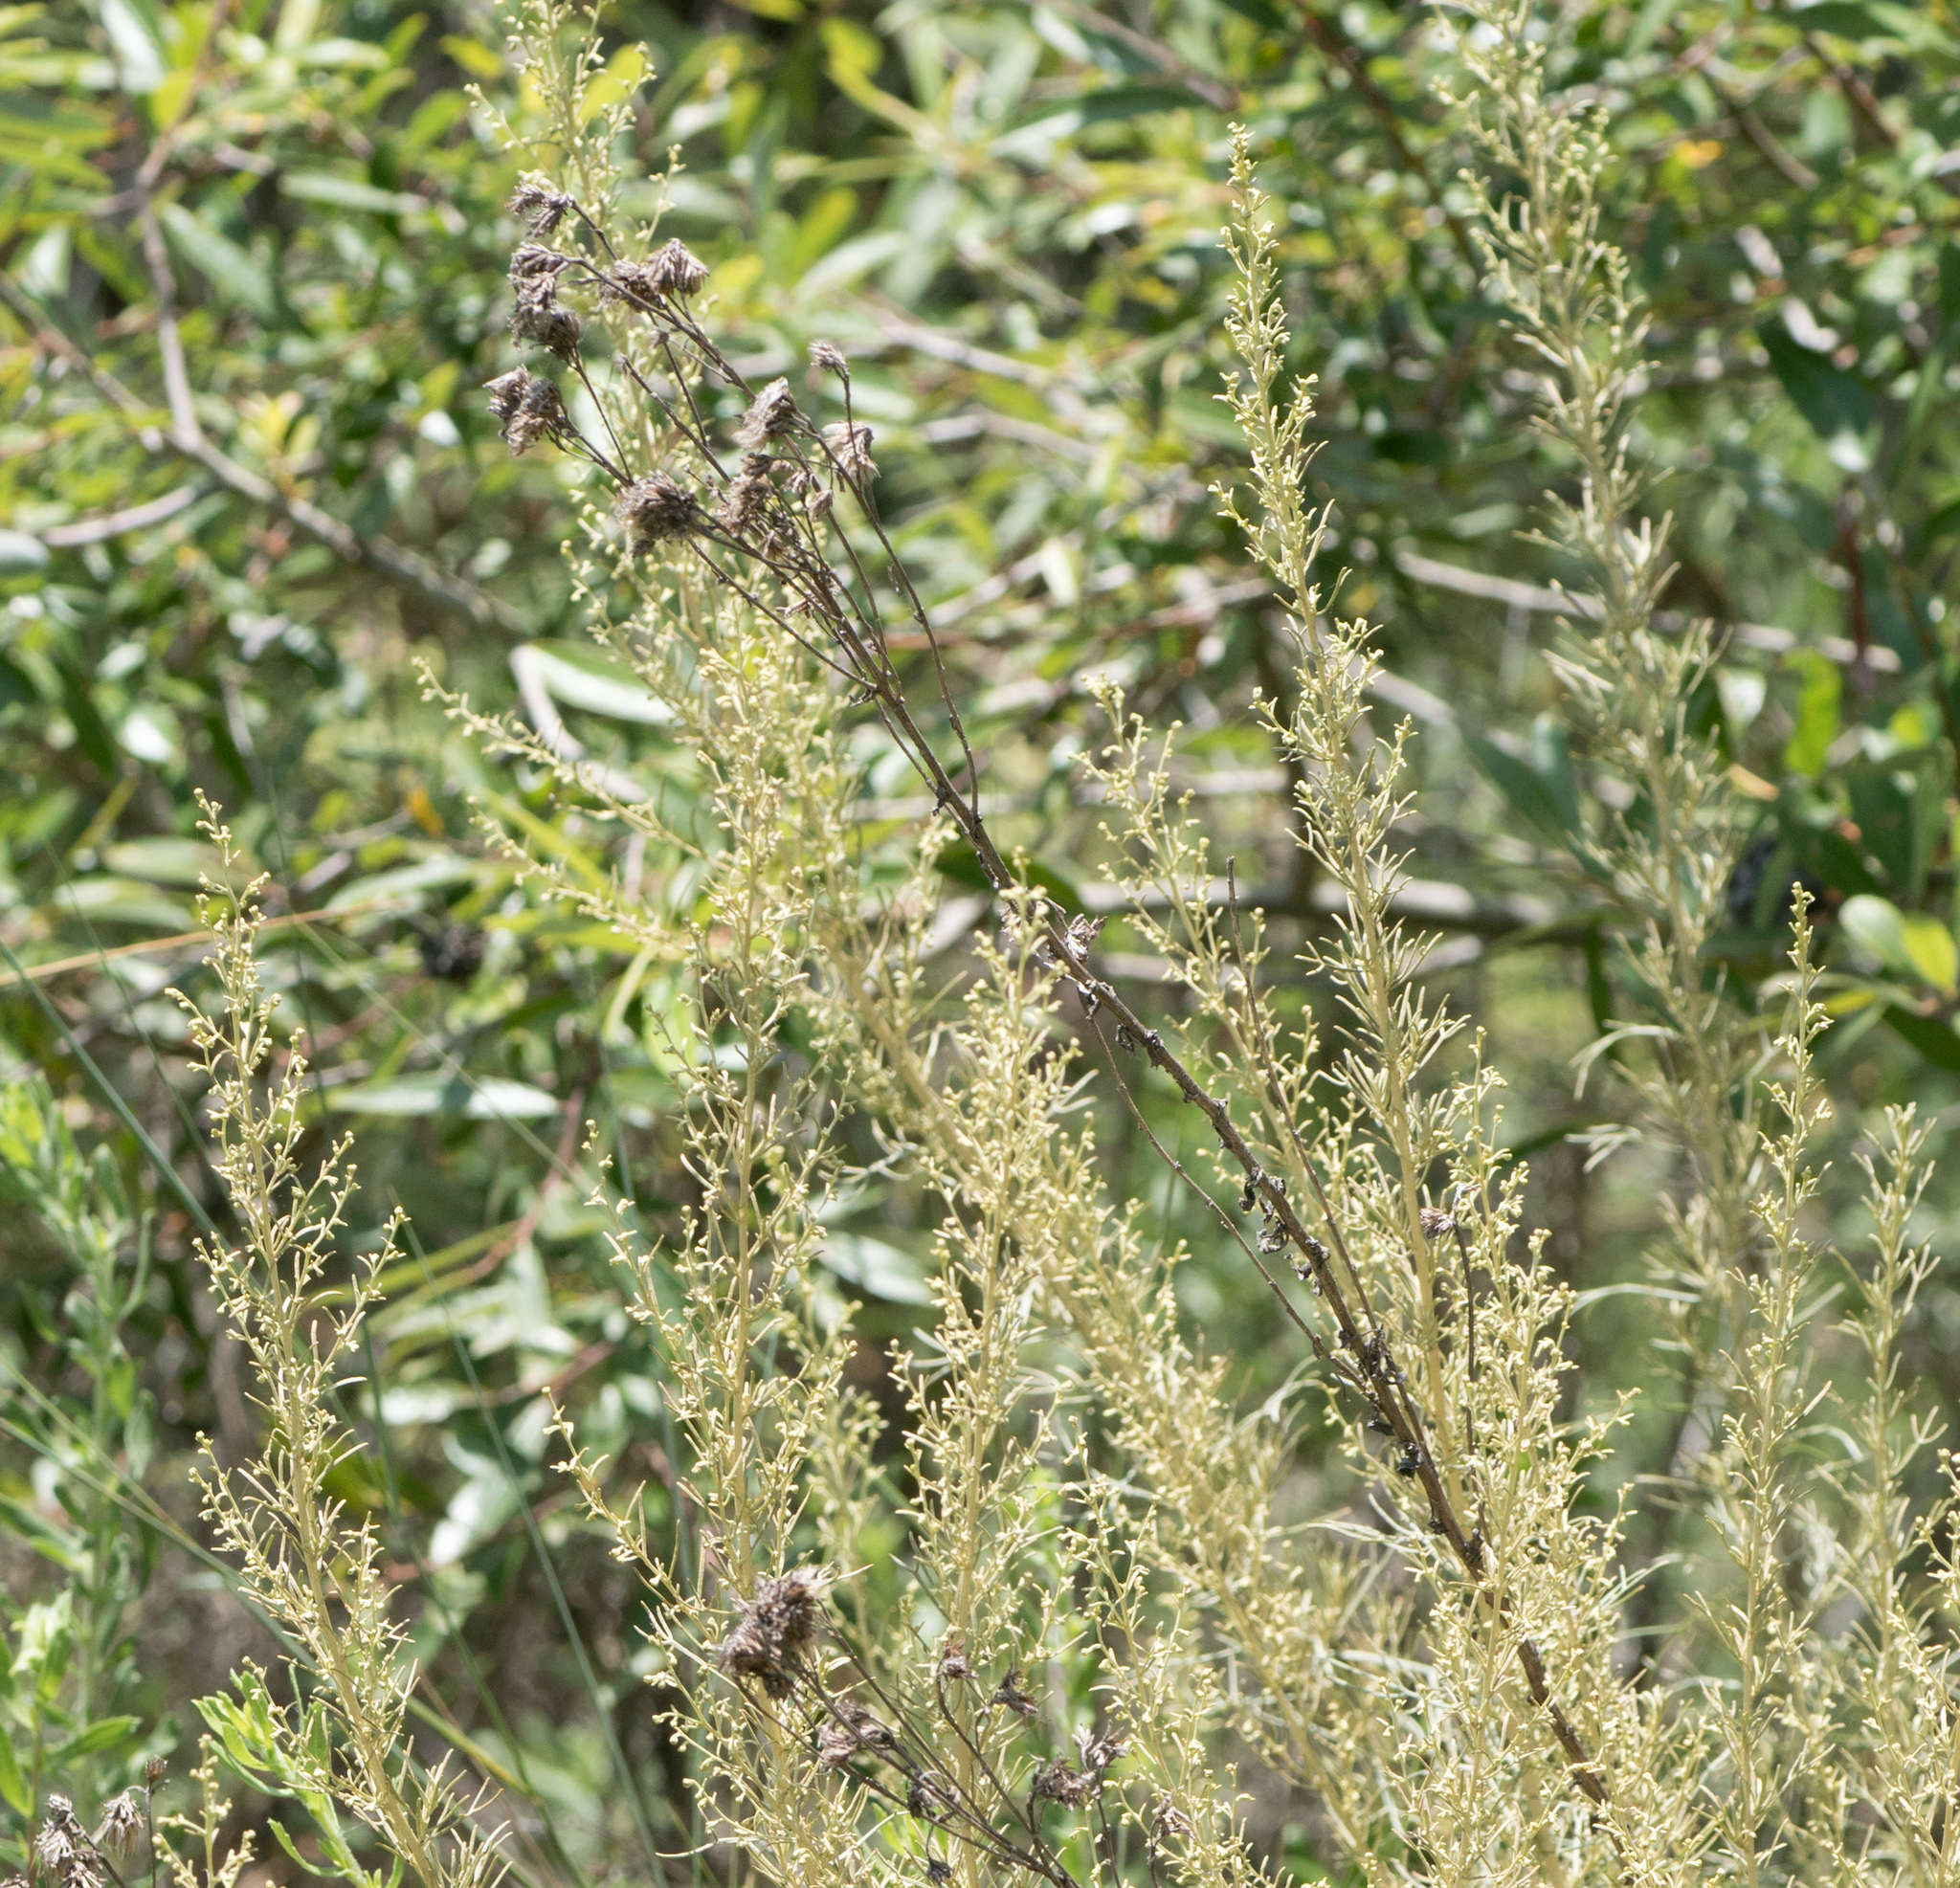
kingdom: Plantae
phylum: Tracheophyta
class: Magnoliopsida
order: Asterales
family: Asteraceae
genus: Artemisia
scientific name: Artemisia californica
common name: California sagebrush
